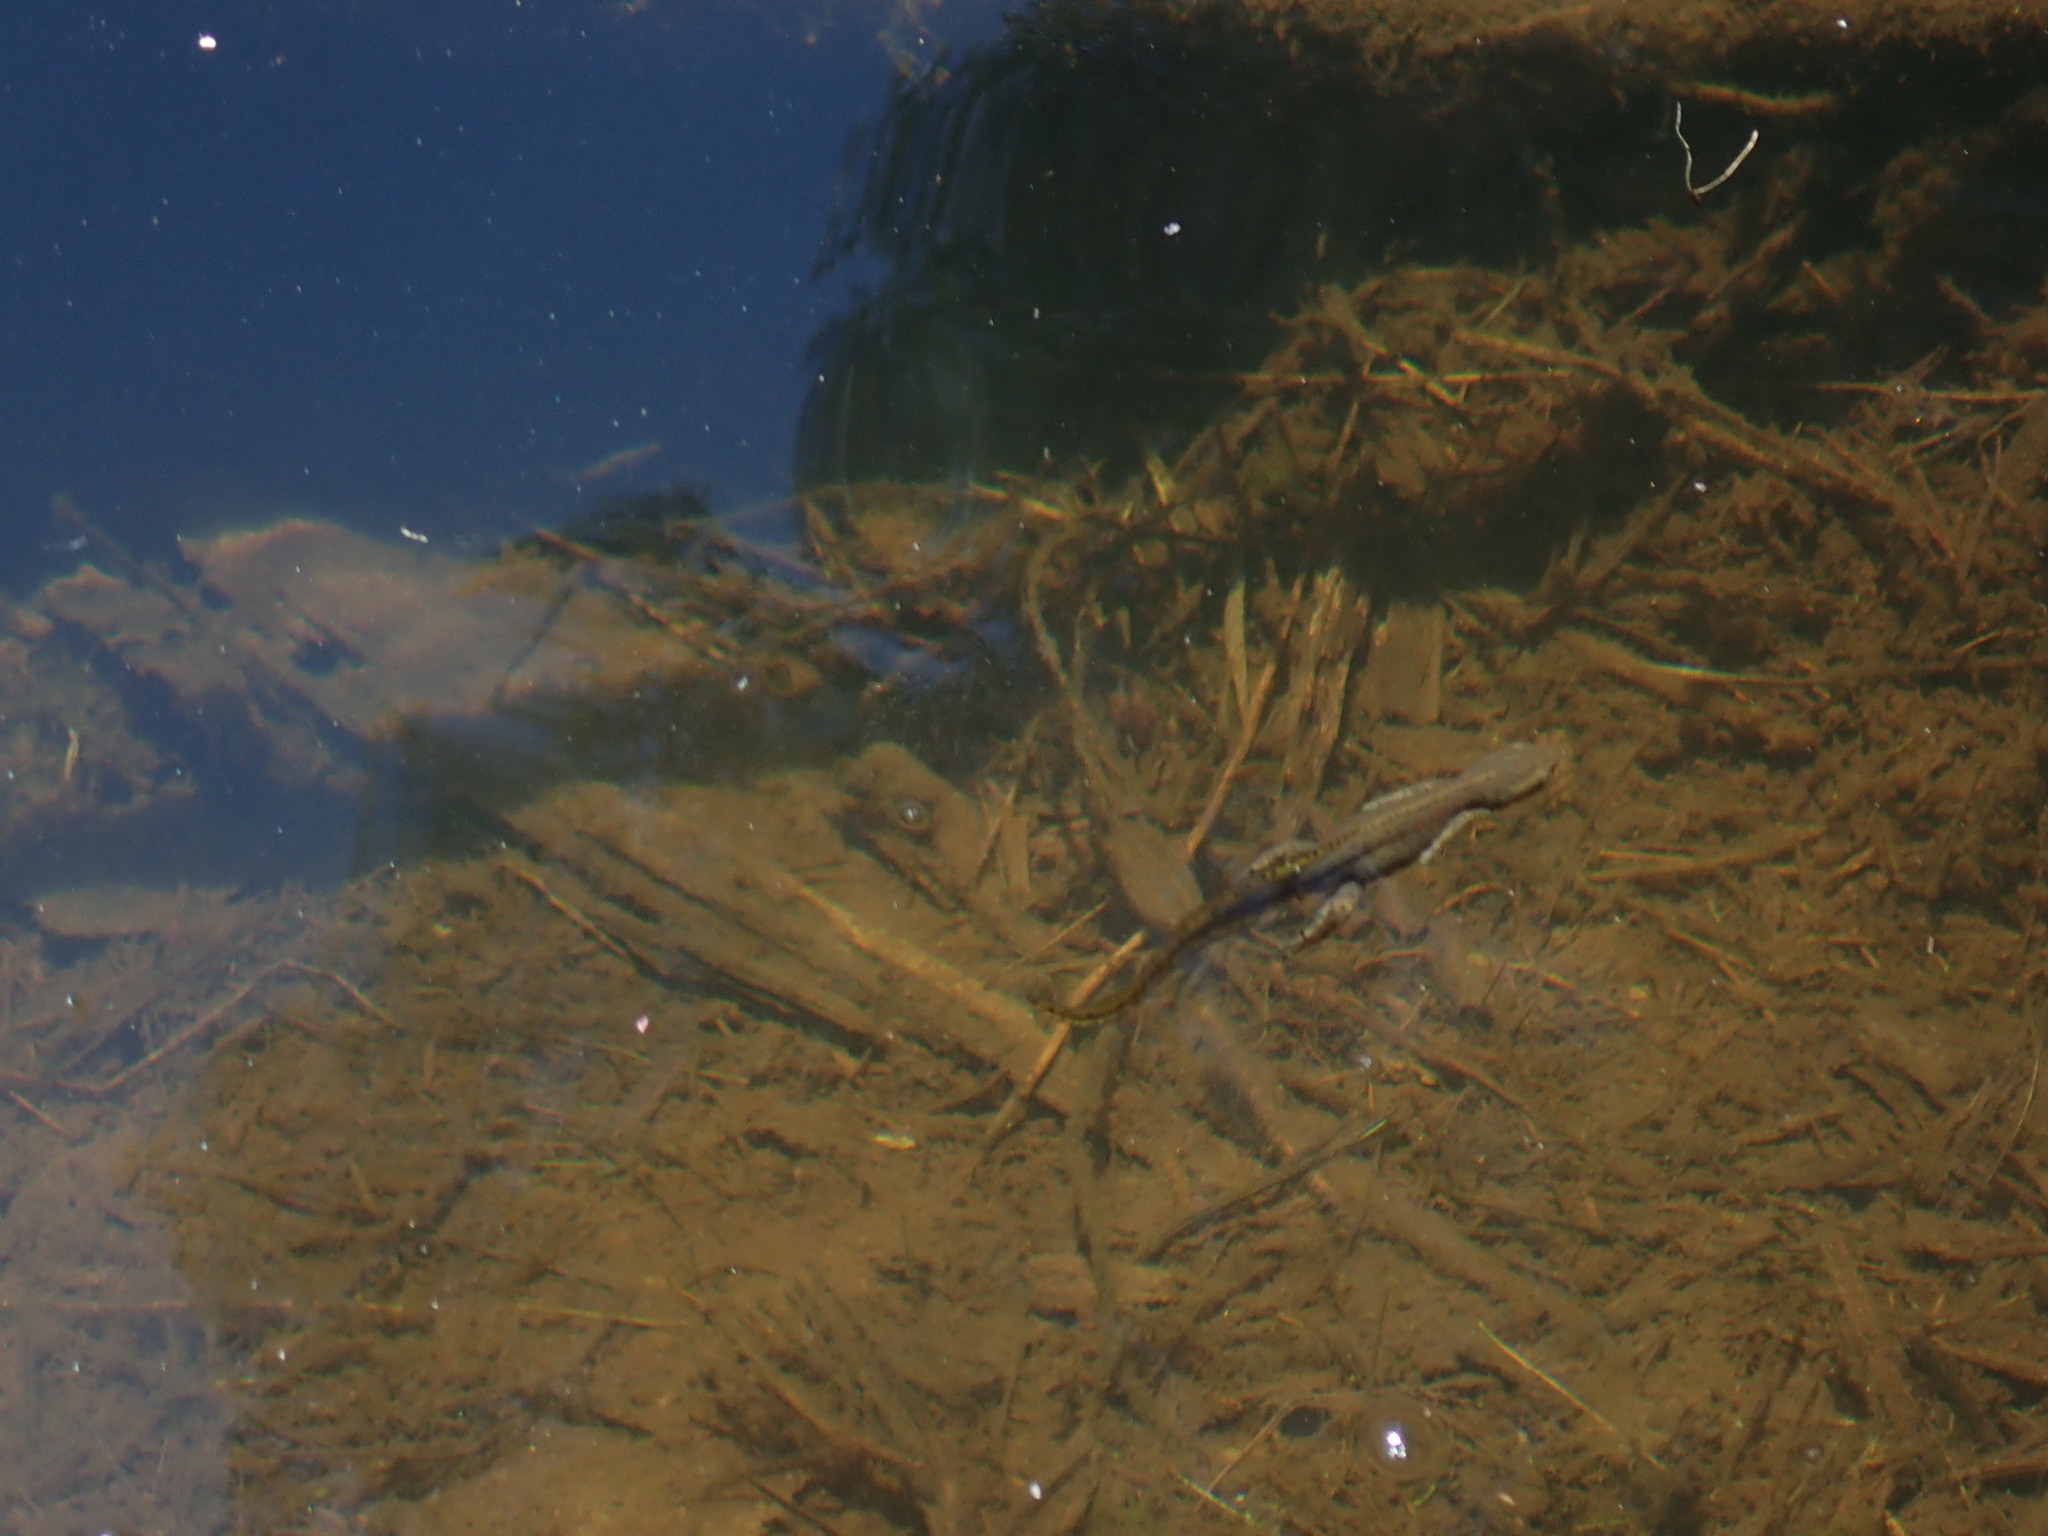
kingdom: Animalia
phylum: Chordata
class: Amphibia
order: Caudata
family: Salamandridae
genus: Notophthalmus
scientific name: Notophthalmus viridescens
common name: Eastern newt
